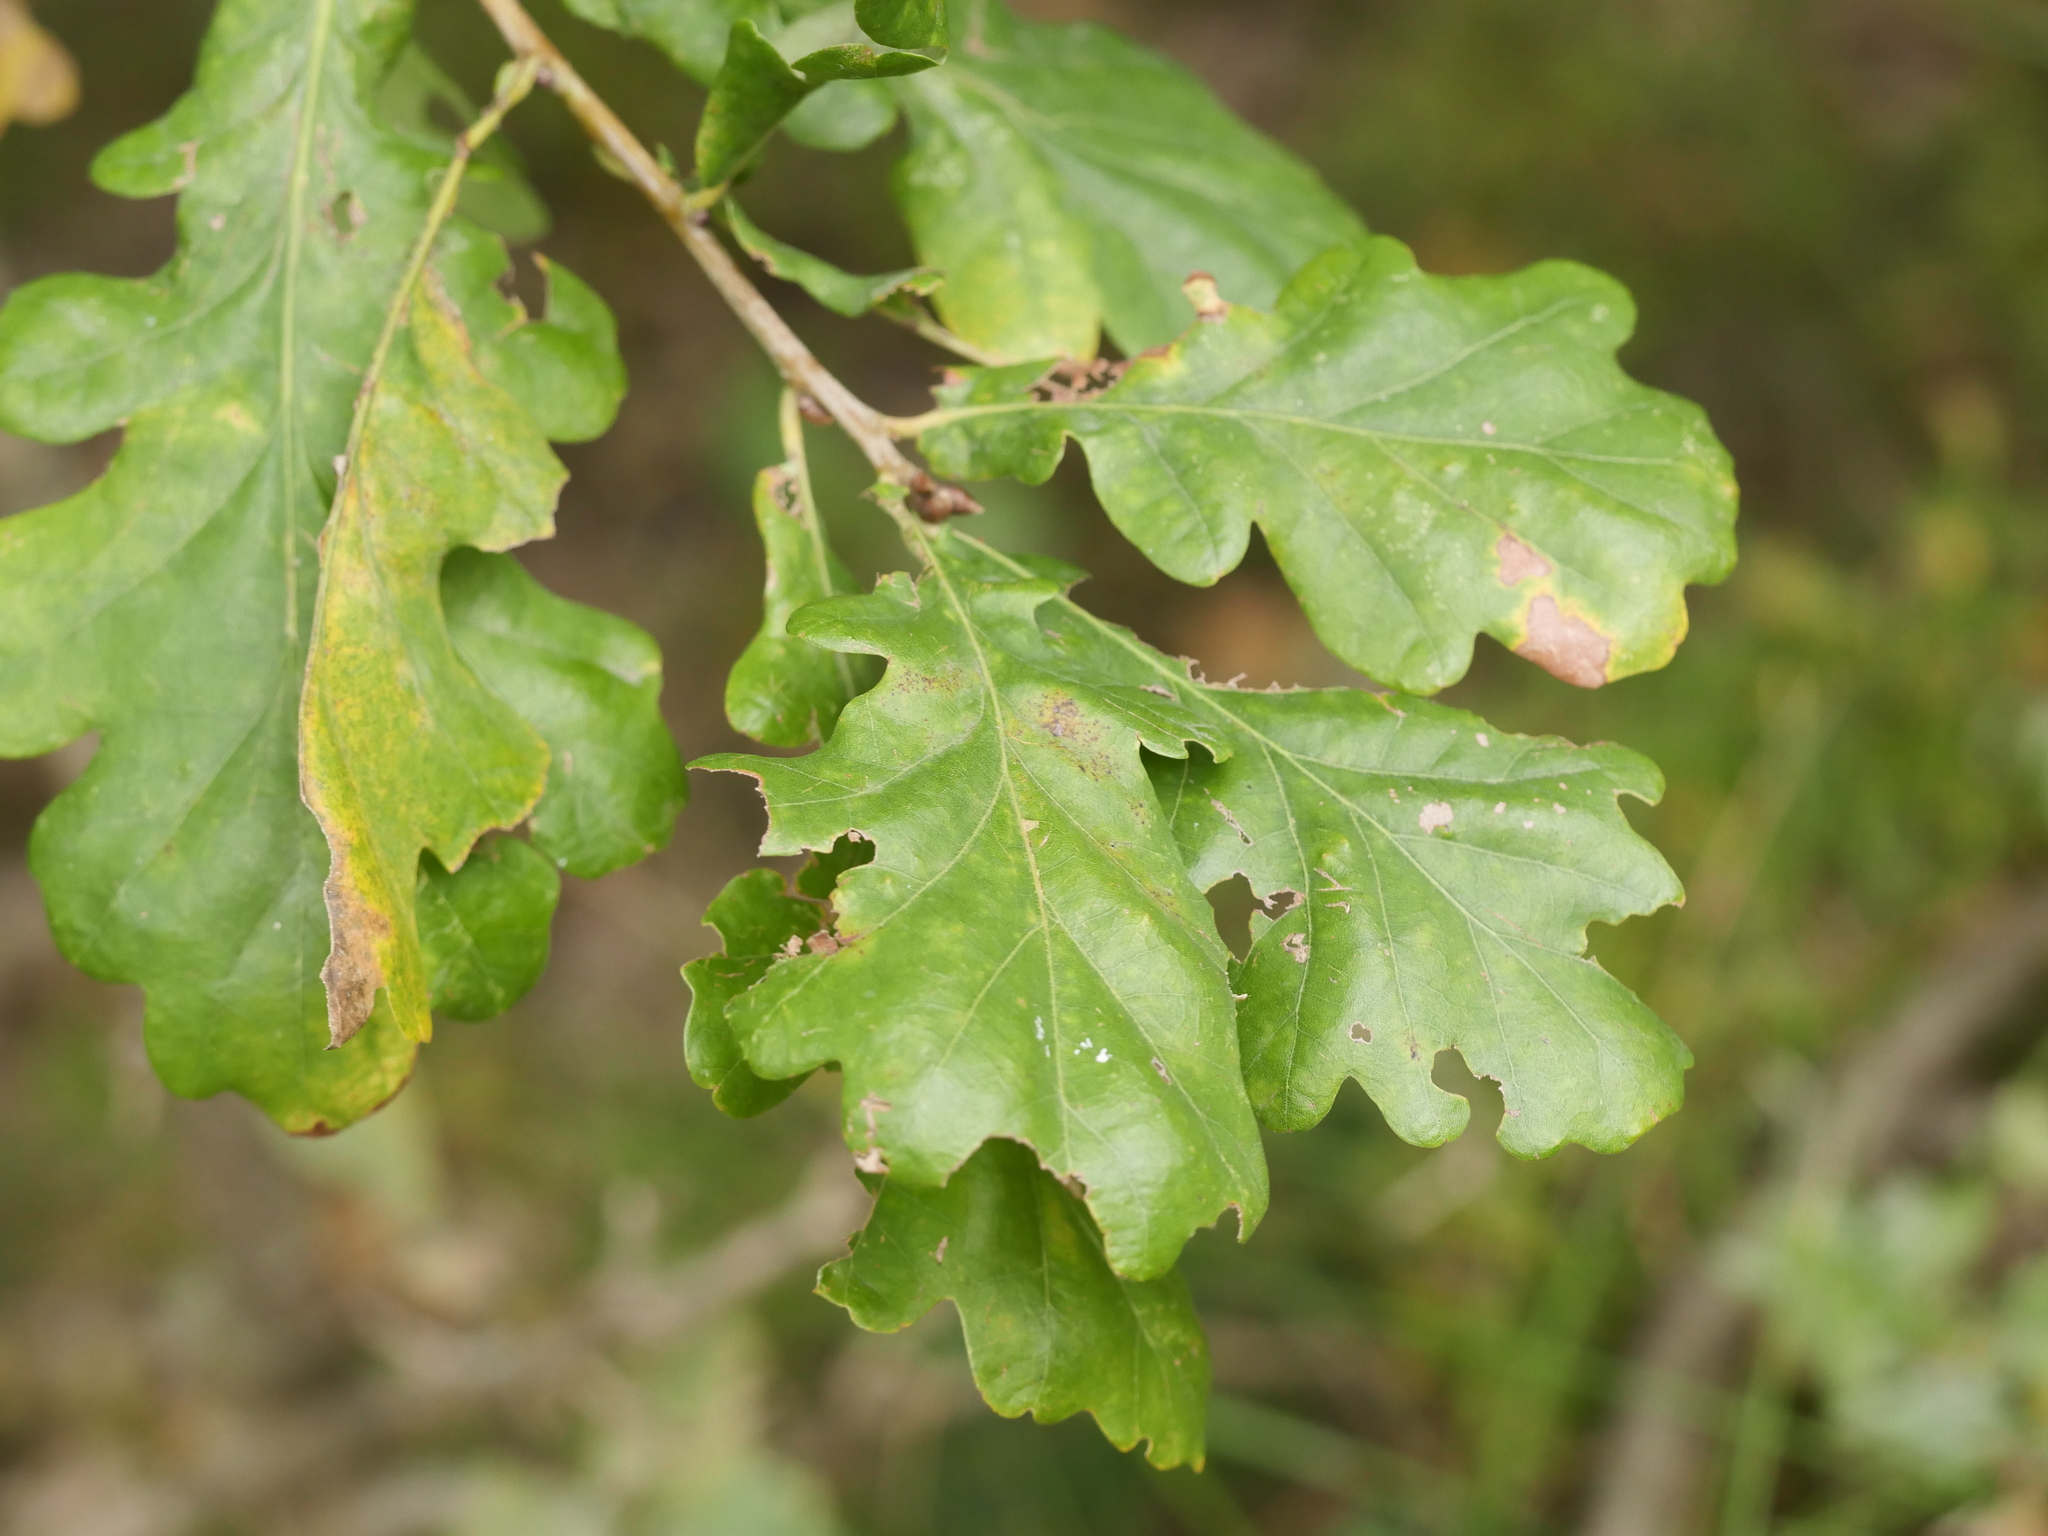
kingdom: Plantae
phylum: Tracheophyta
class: Magnoliopsida
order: Fagales
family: Fagaceae
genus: Quercus
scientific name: Quercus robur
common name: Pedunculate oak
